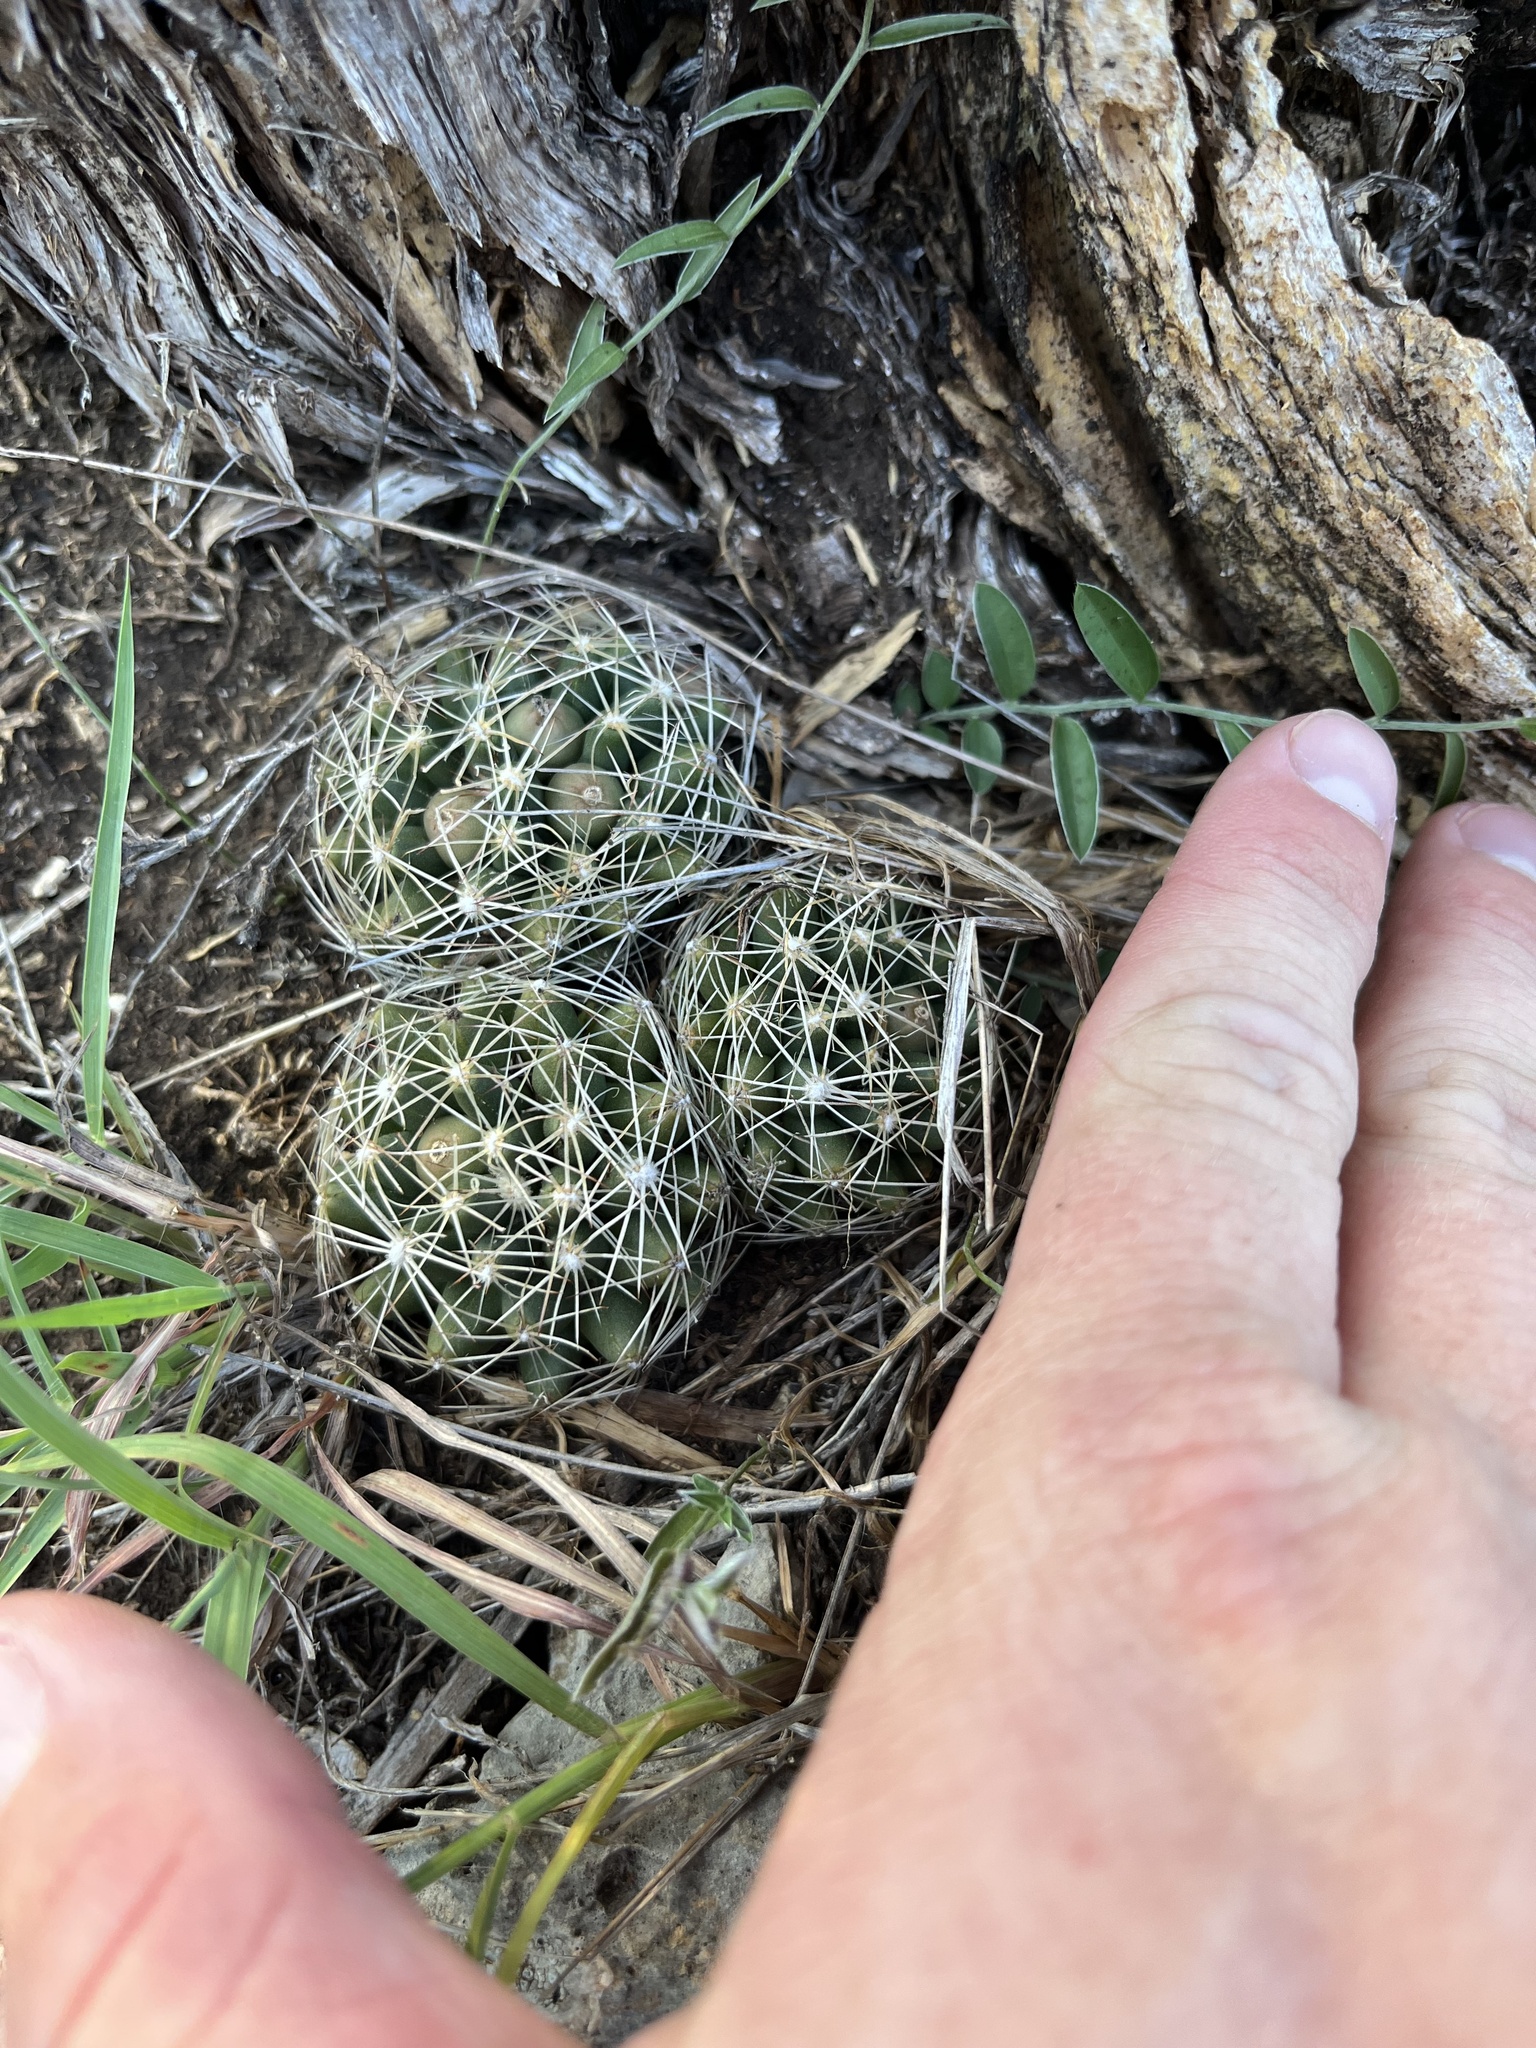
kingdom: Plantae
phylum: Tracheophyta
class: Magnoliopsida
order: Caryophyllales
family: Cactaceae
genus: Pelecyphora
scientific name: Pelecyphora missouriensis
